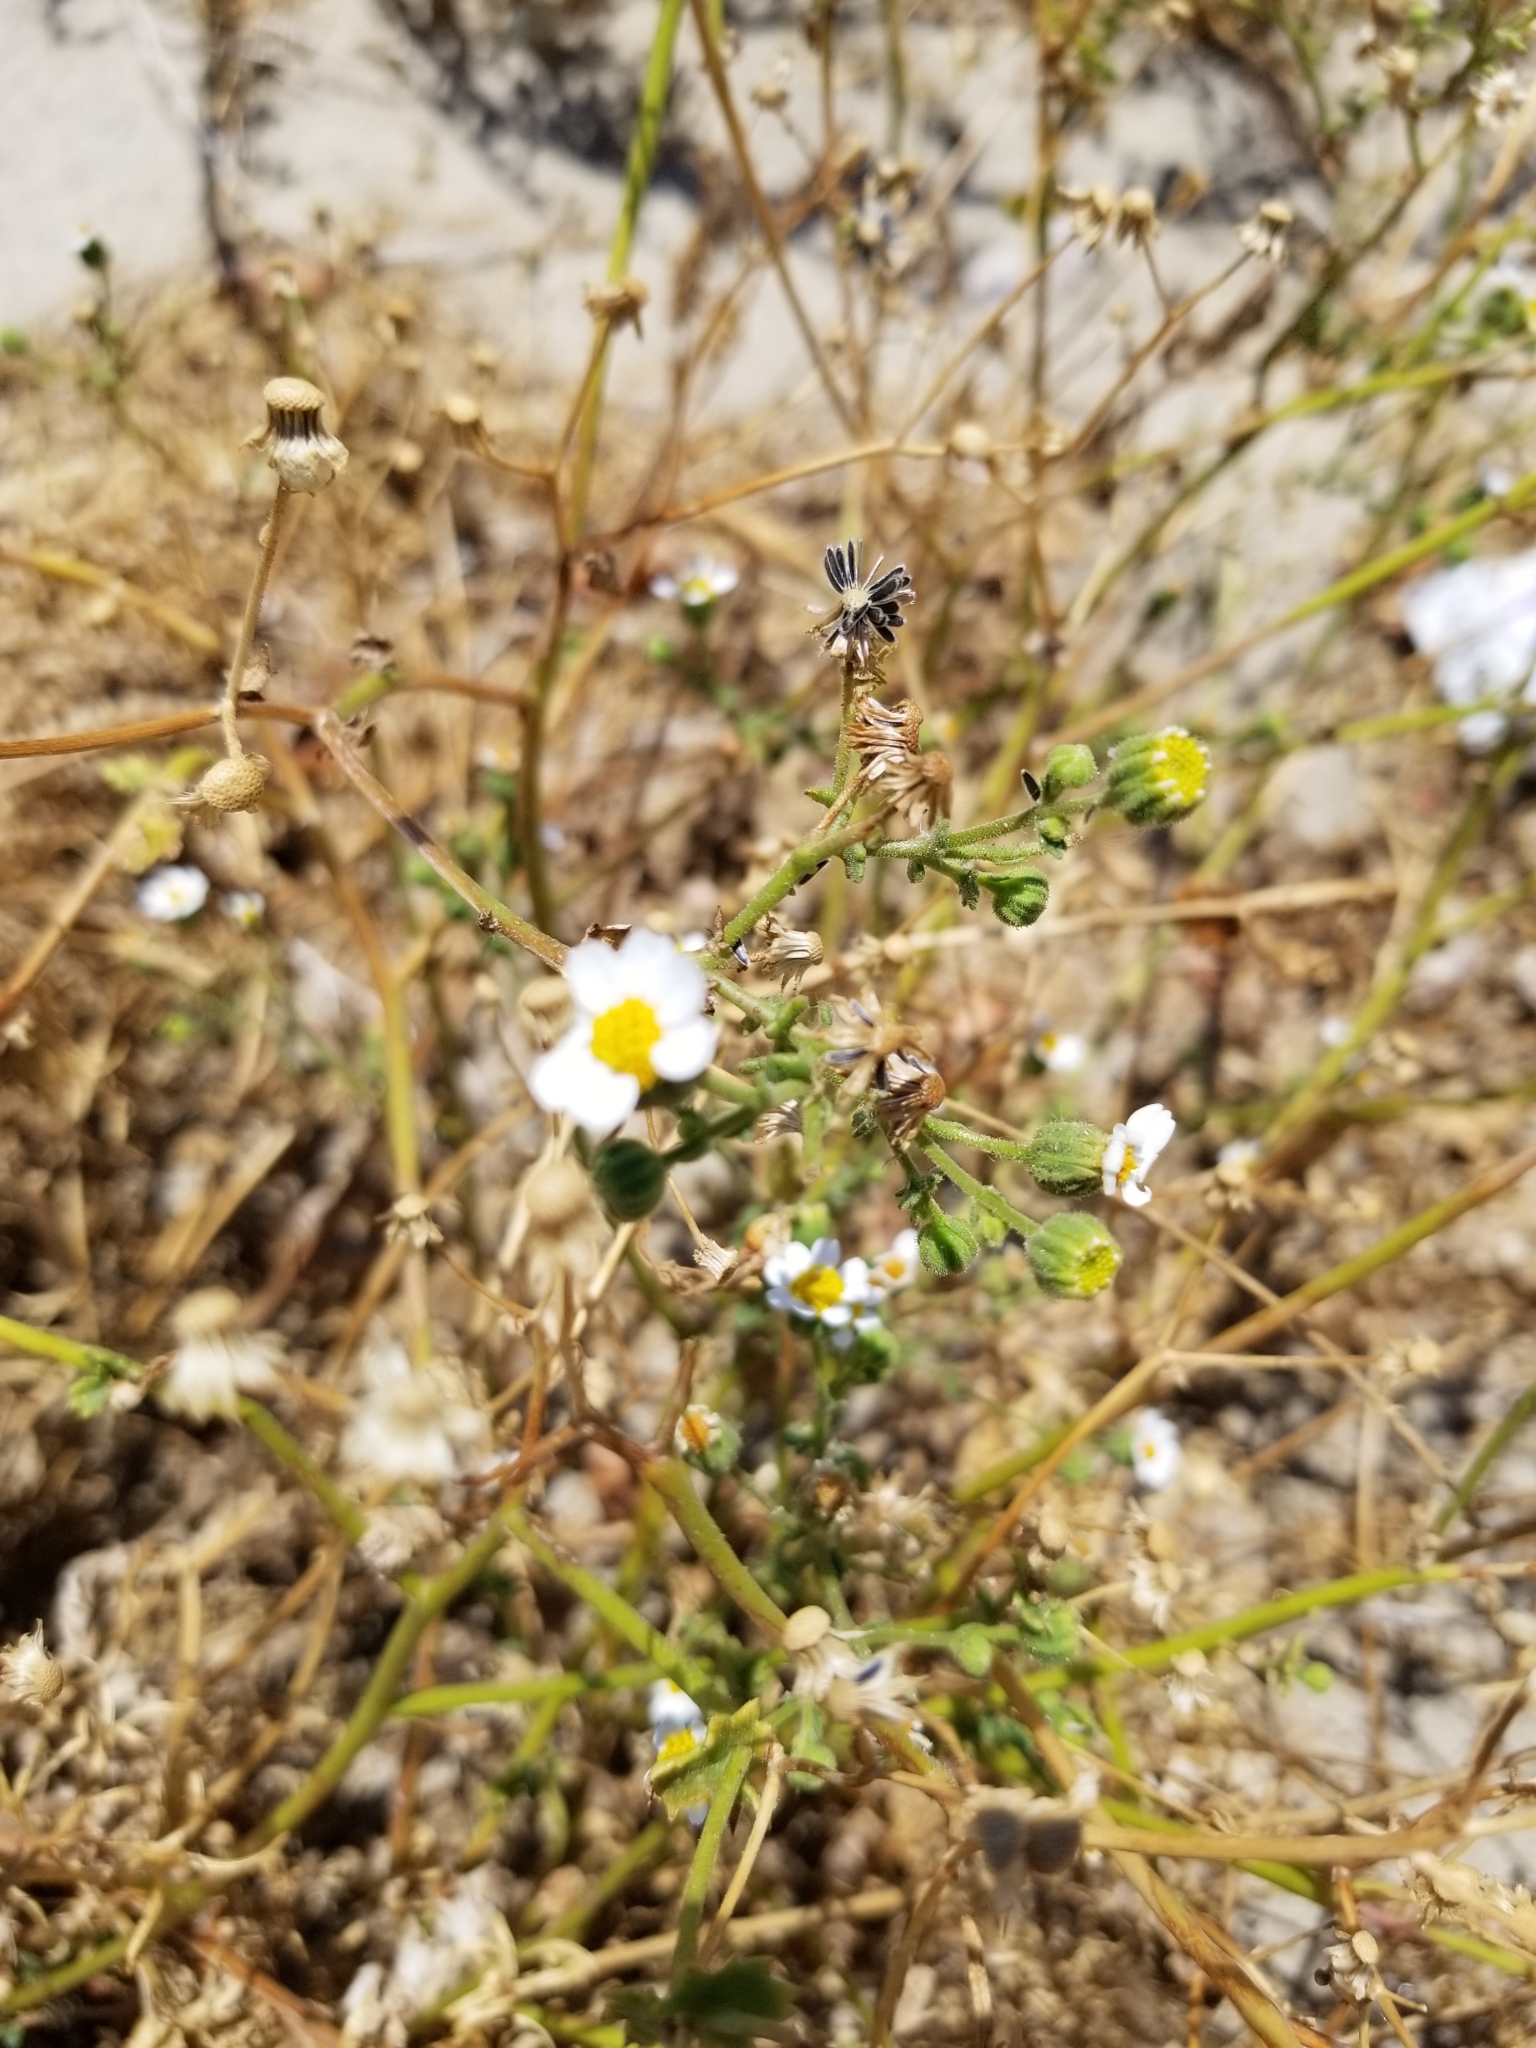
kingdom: Plantae
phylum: Tracheophyta
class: Magnoliopsida
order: Asterales
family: Asteraceae
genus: Laphamia
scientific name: Laphamia emoryi
